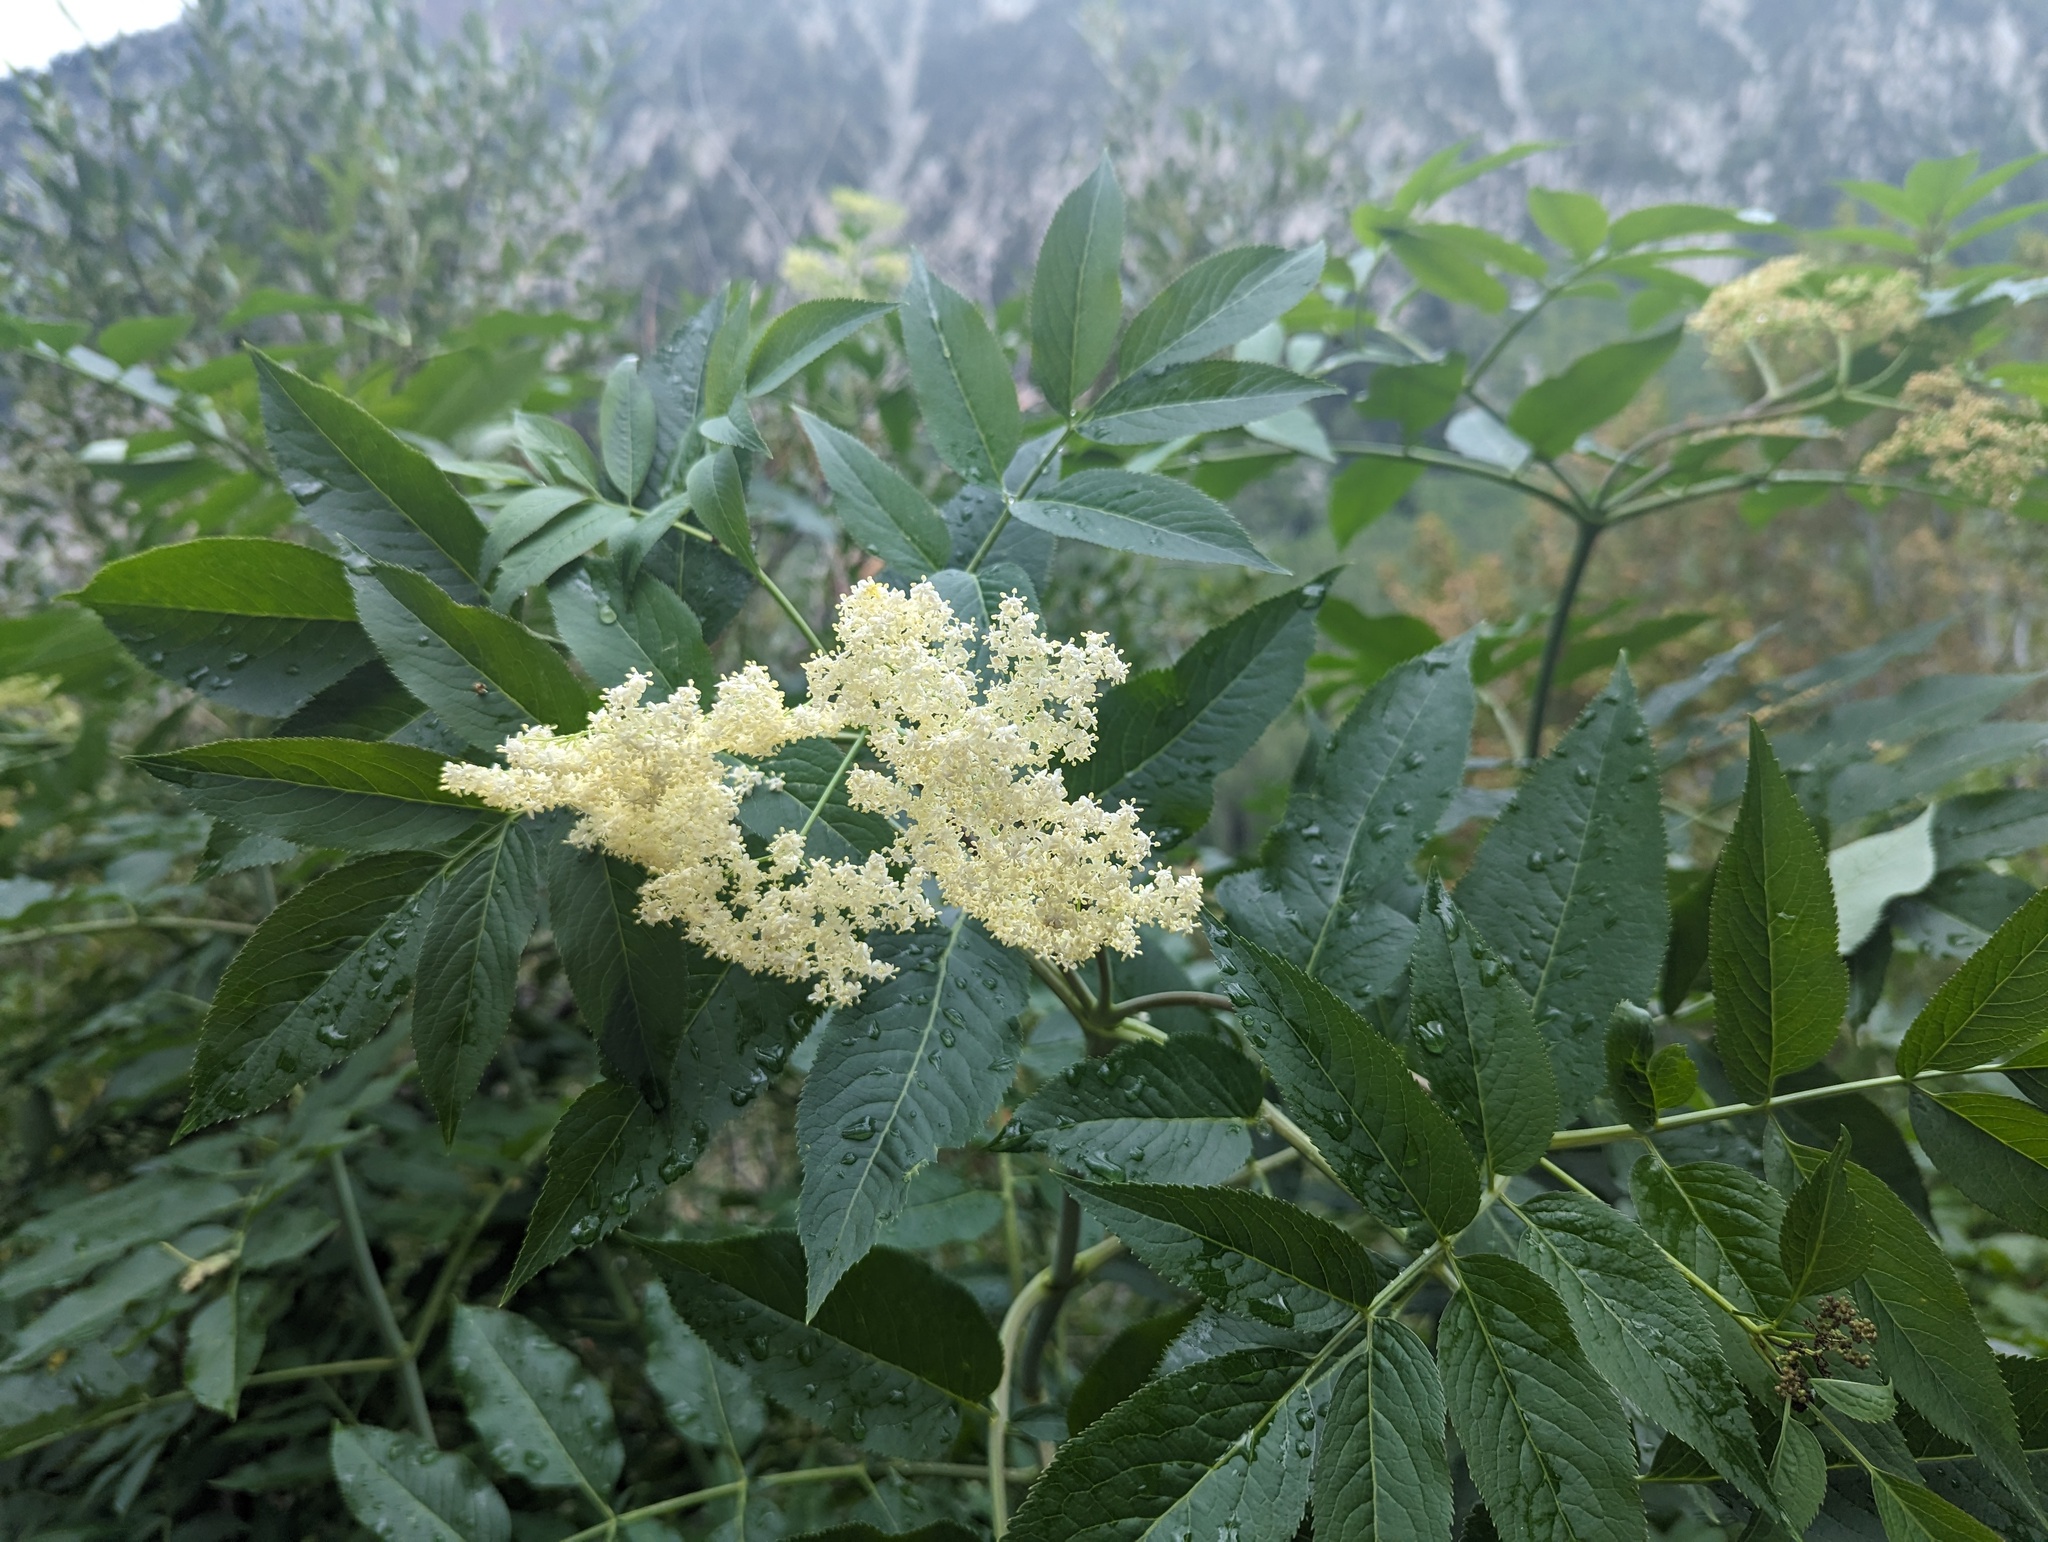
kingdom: Plantae
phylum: Tracheophyta
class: Magnoliopsida
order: Dipsacales
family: Viburnaceae
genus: Sambucus
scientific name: Sambucus cerulea
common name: Blue elder
